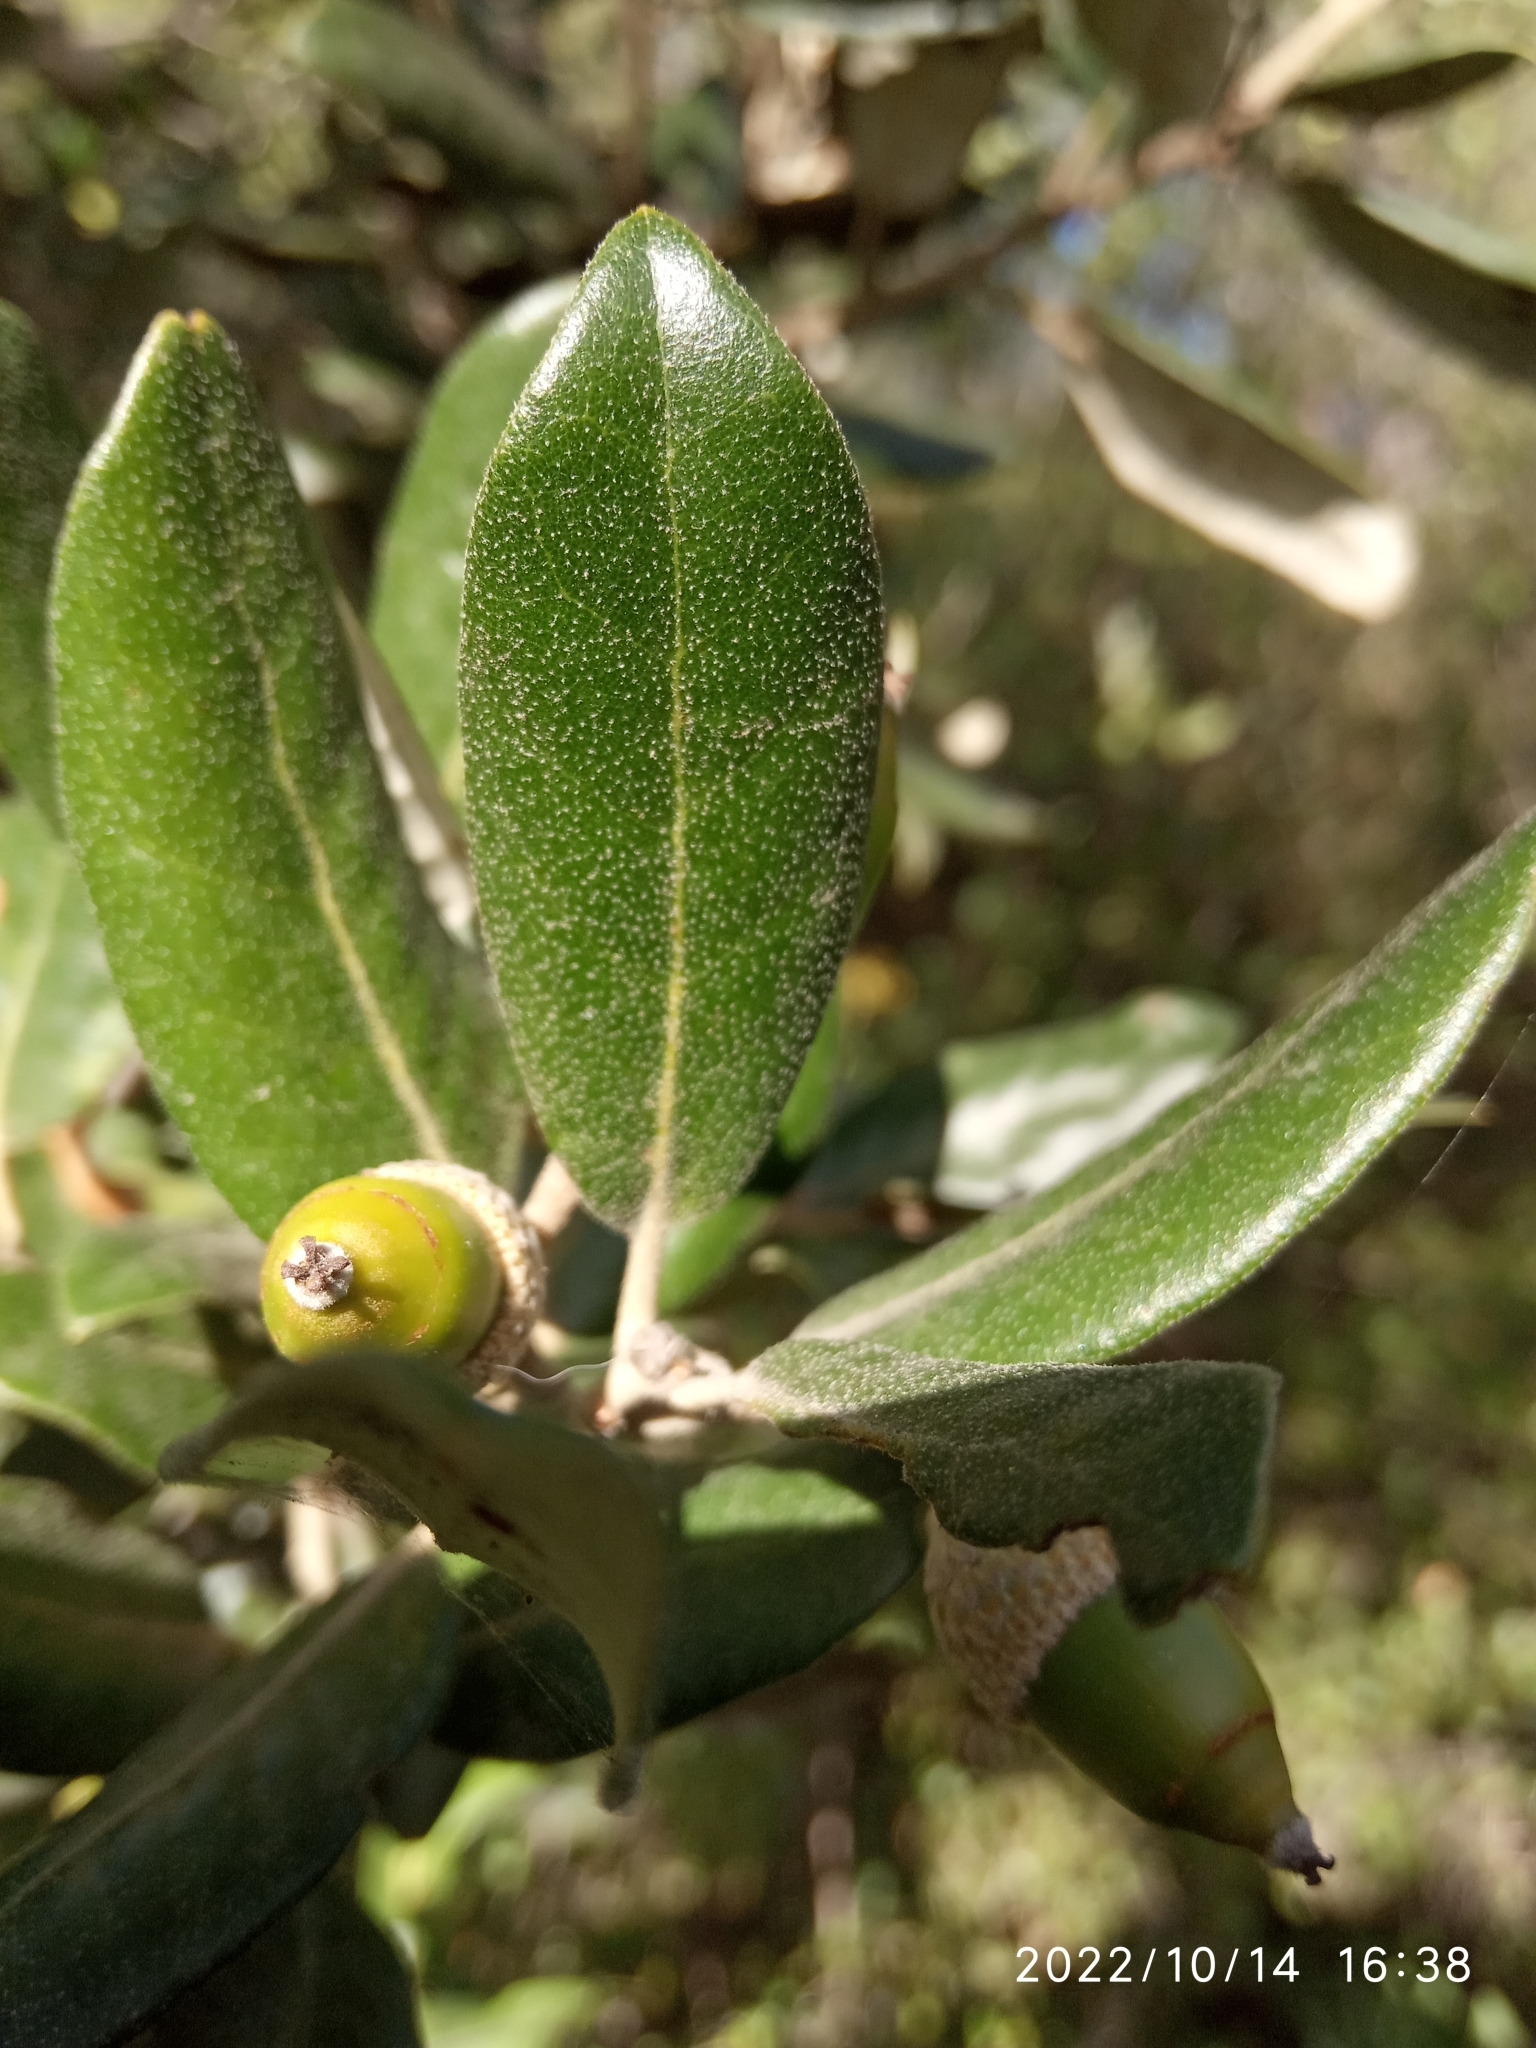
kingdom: Plantae
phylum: Tracheophyta
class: Magnoliopsida
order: Fagales
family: Fagaceae
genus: Quercus
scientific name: Quercus ilex
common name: Evergreen oak
